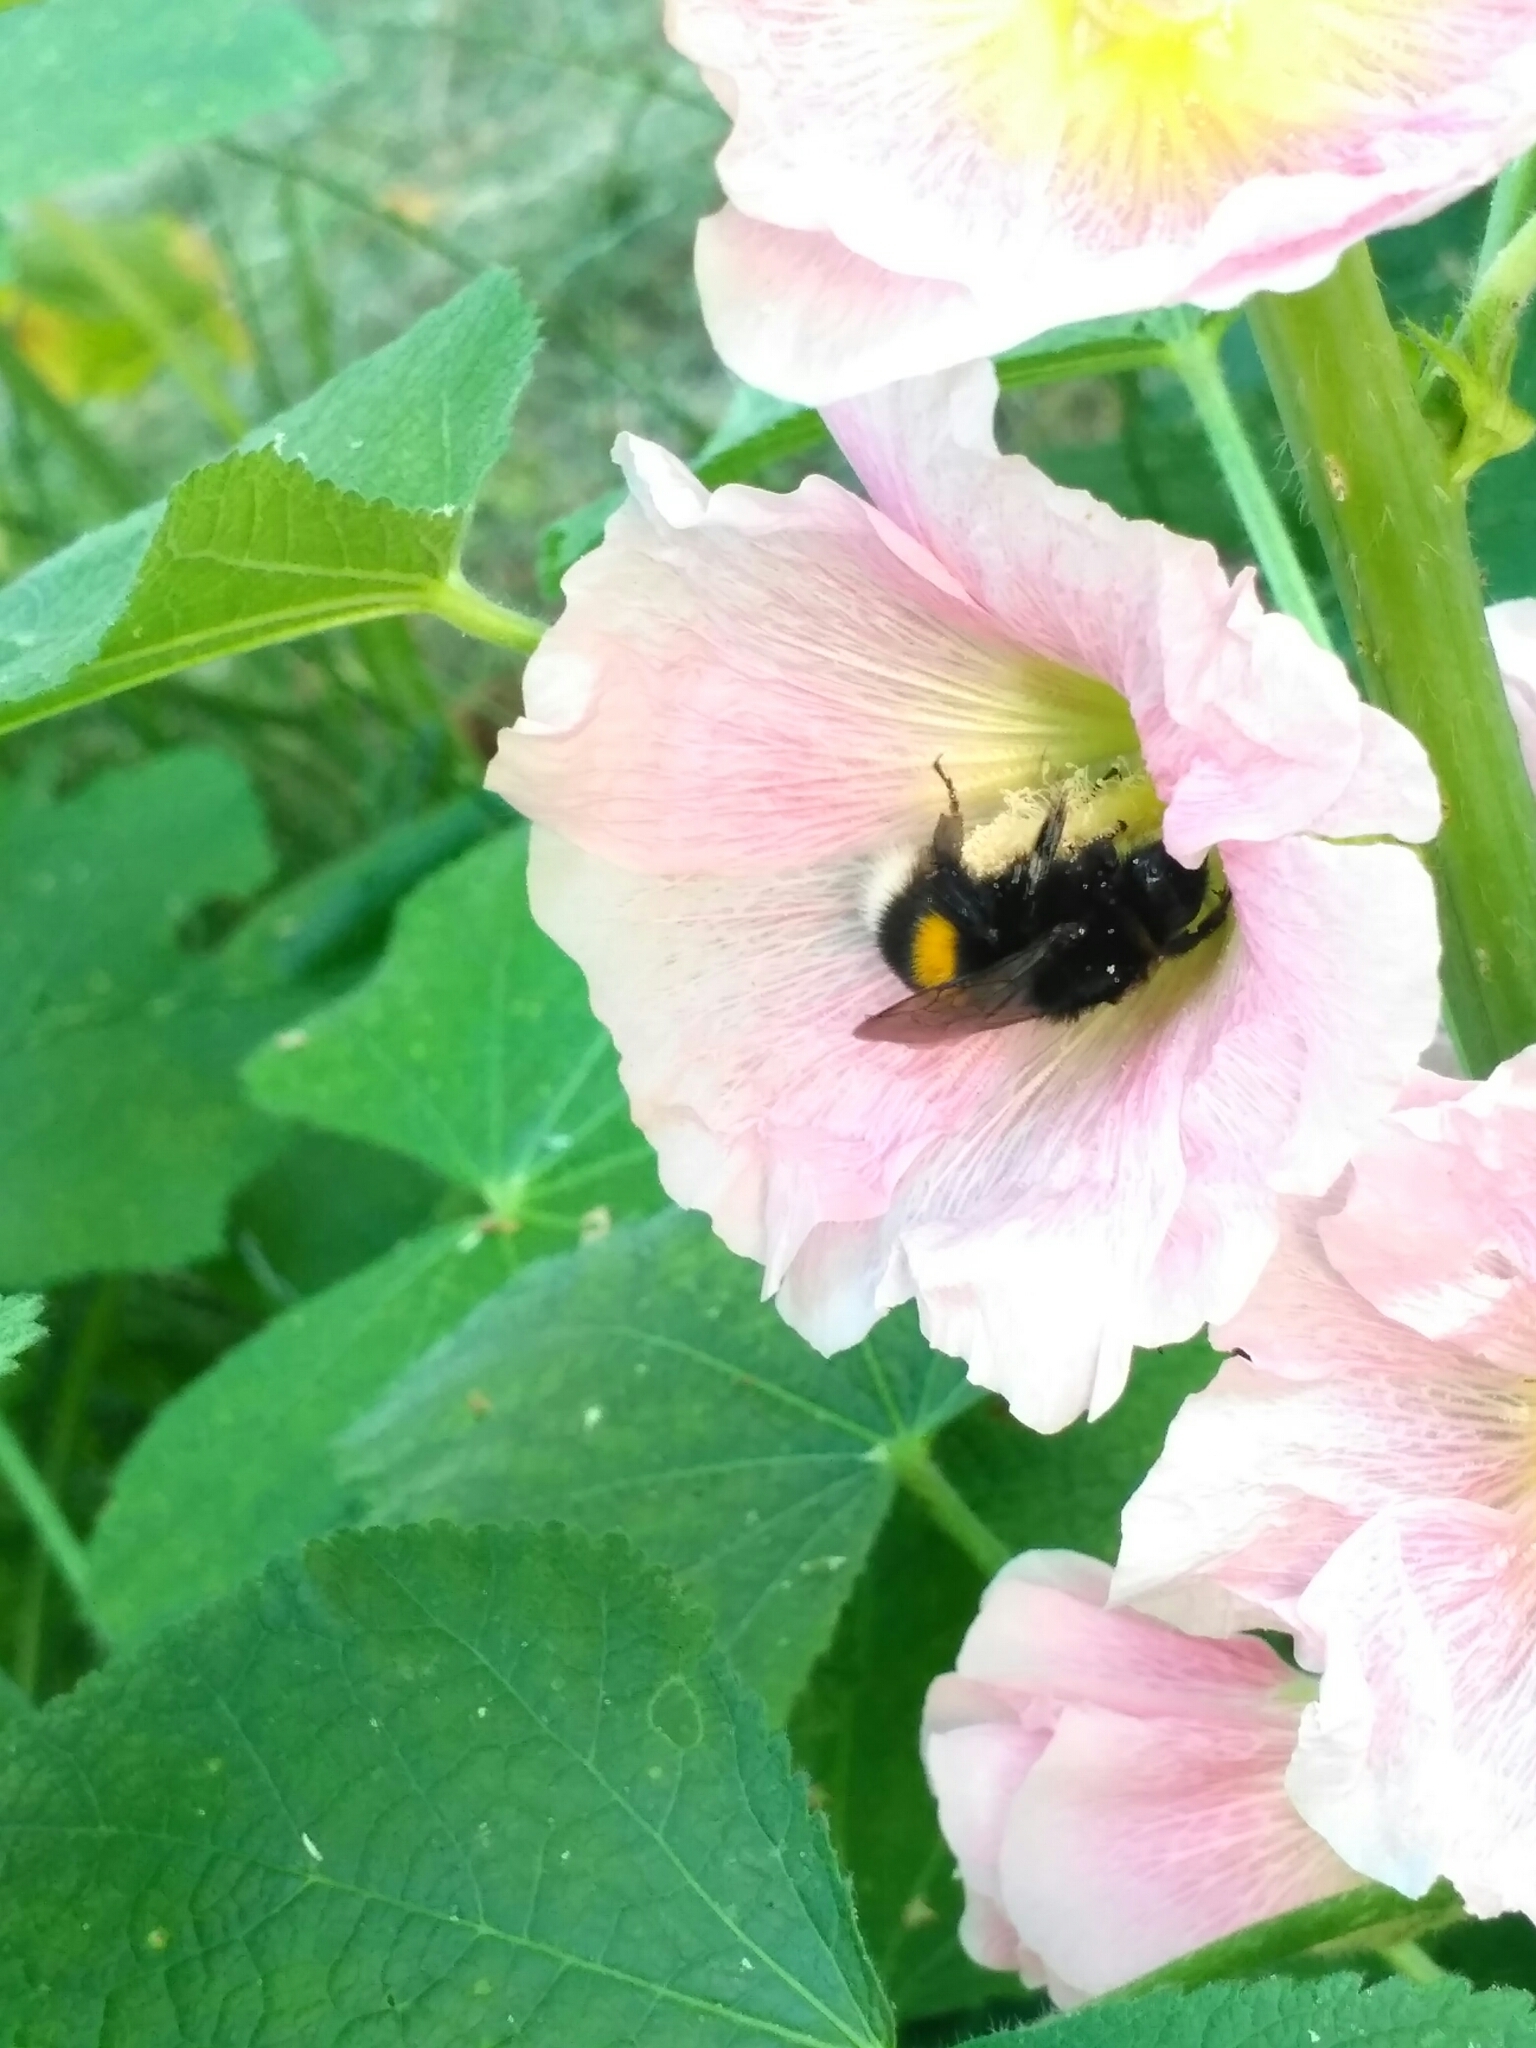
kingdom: Animalia
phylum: Arthropoda
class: Insecta
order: Hymenoptera
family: Apidae
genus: Bombus
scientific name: Bombus
